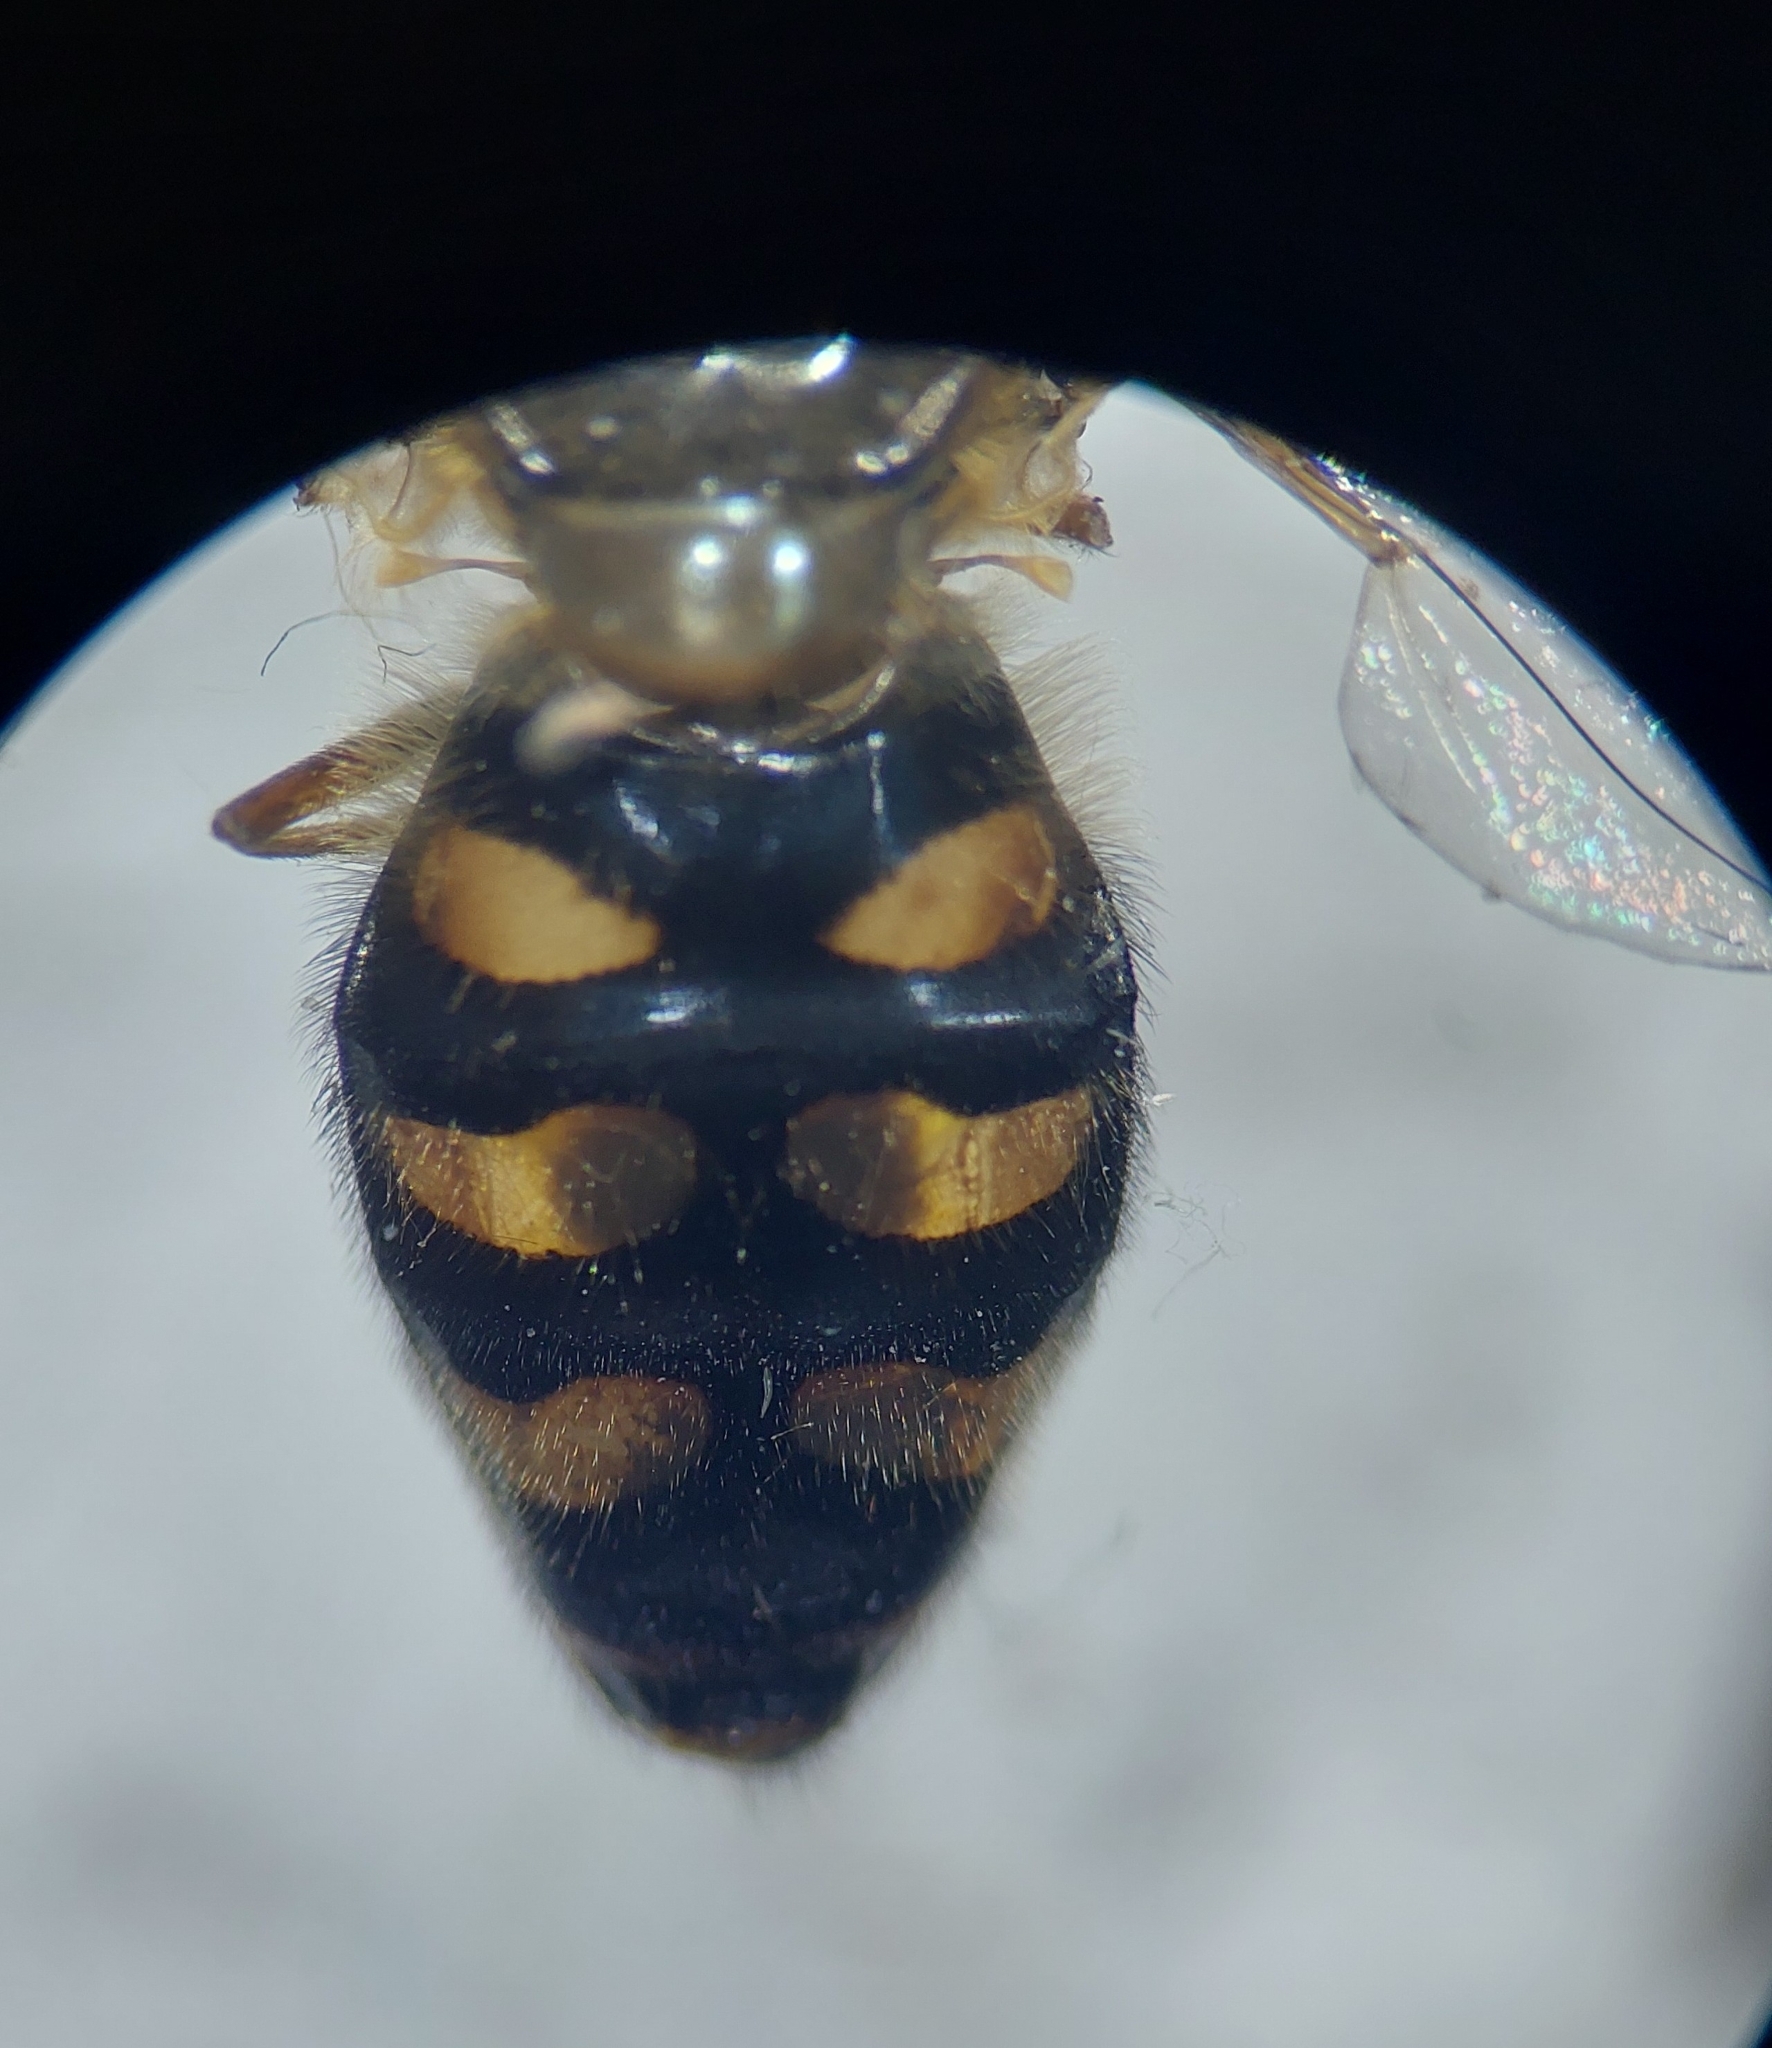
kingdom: Animalia
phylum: Arthropoda
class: Insecta
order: Diptera
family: Syrphidae
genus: Eupeodes
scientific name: Eupeodes luniger
